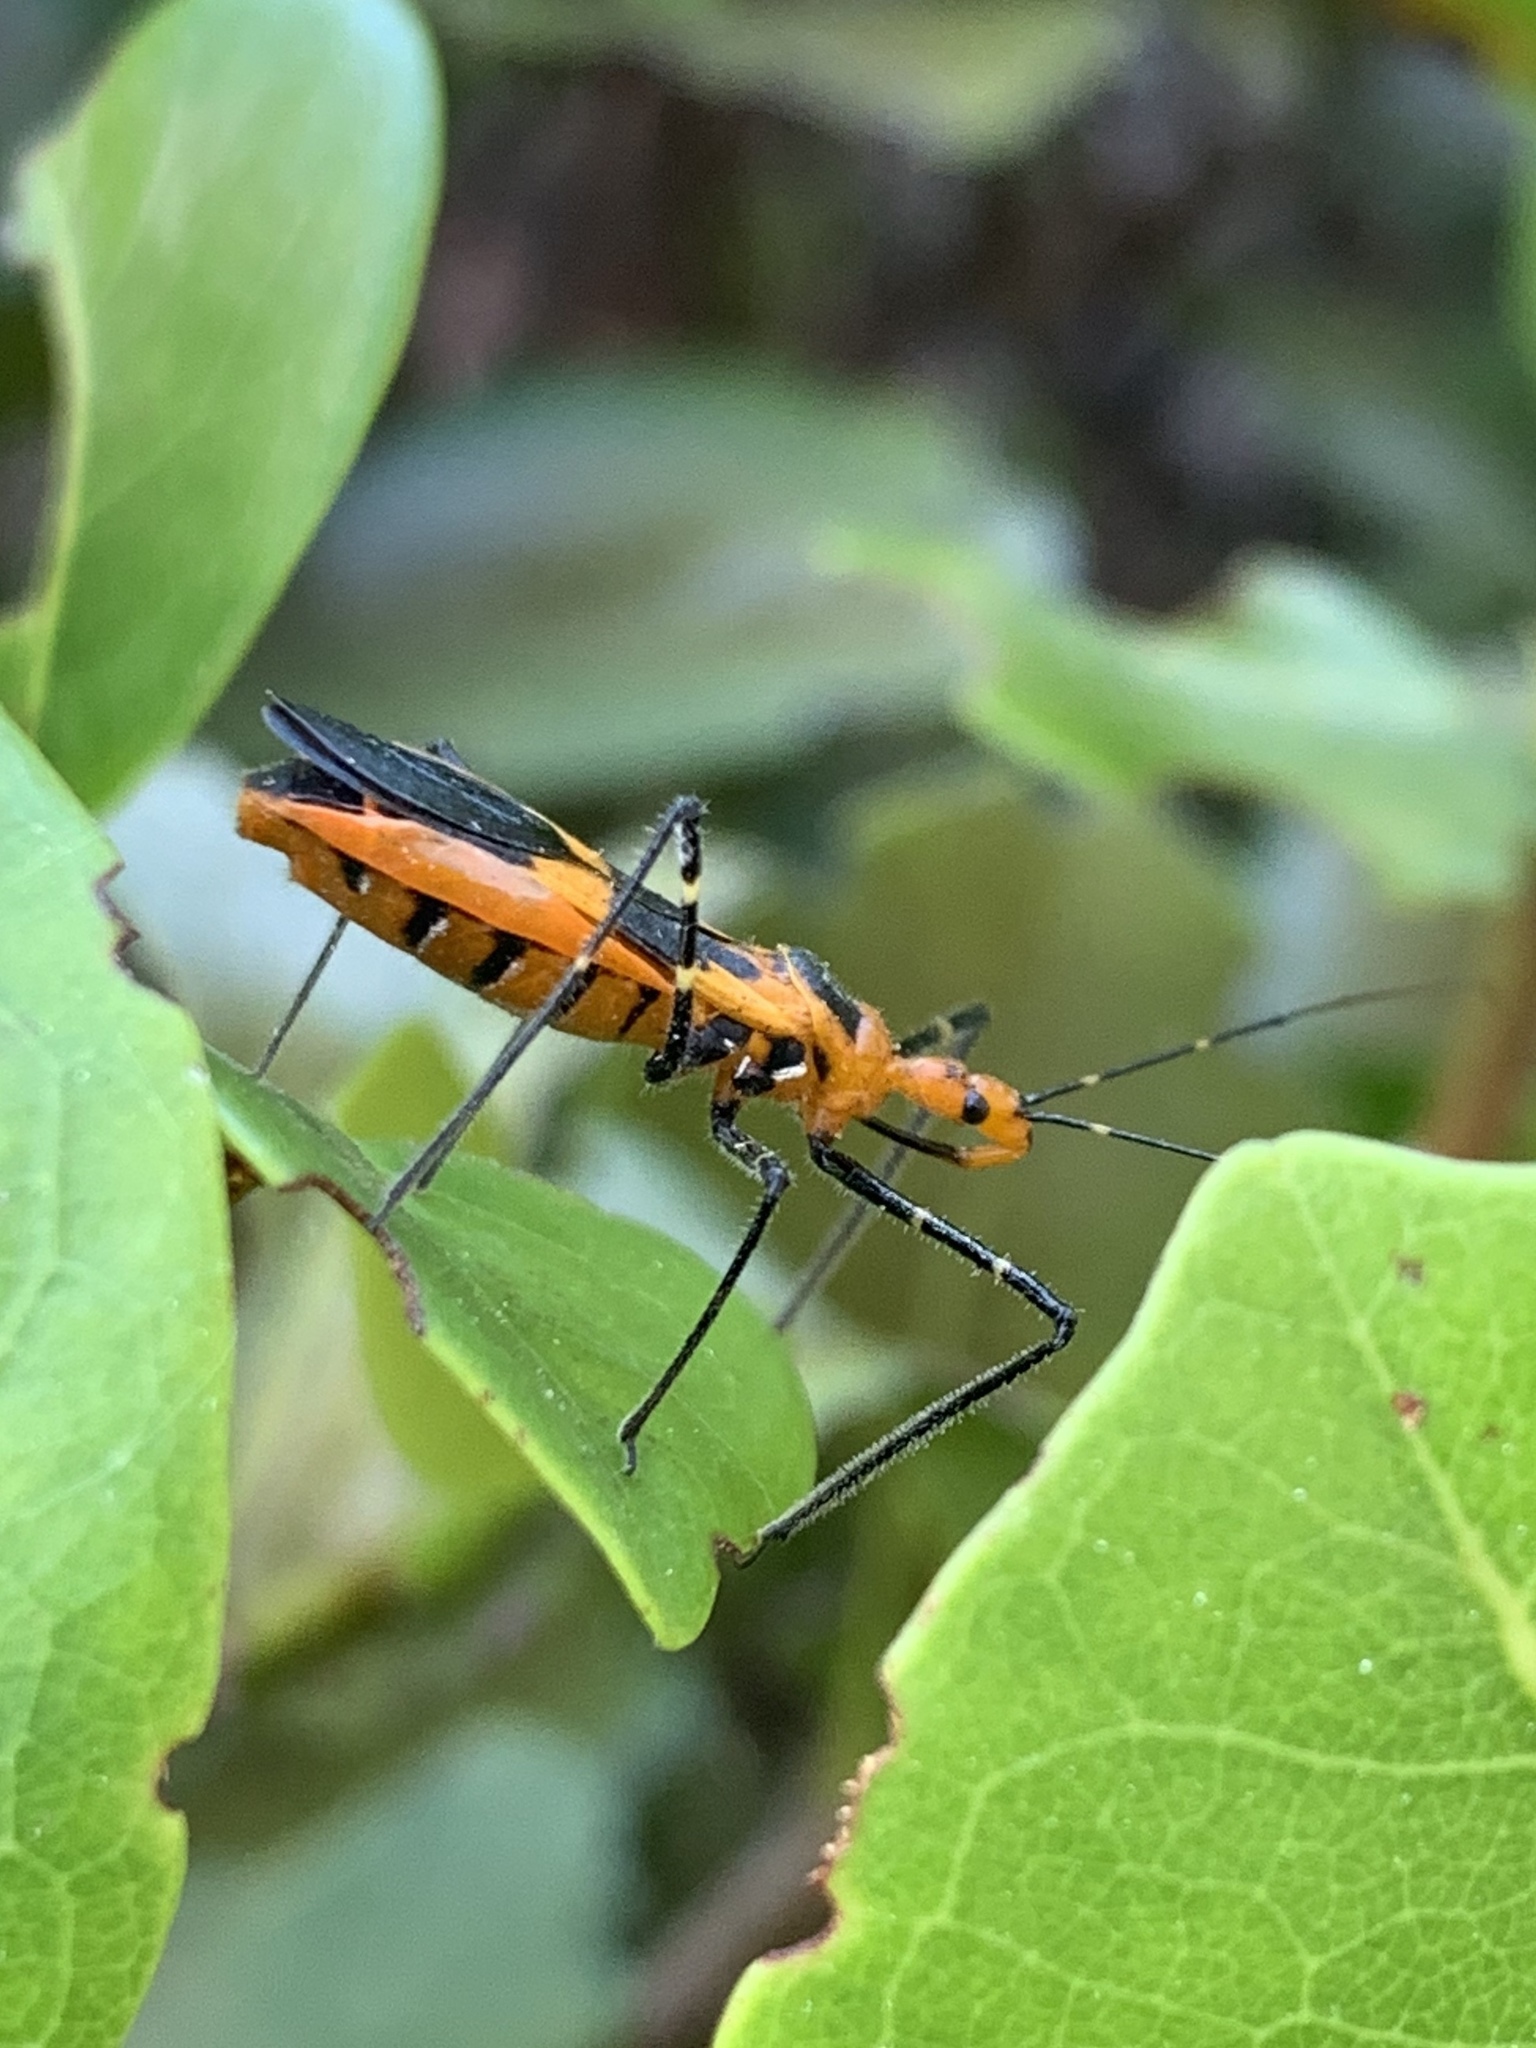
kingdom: Animalia
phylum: Arthropoda
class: Insecta
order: Hemiptera
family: Reduviidae
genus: Zelus
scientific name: Zelus longipes
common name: Milkweed assassin bug
